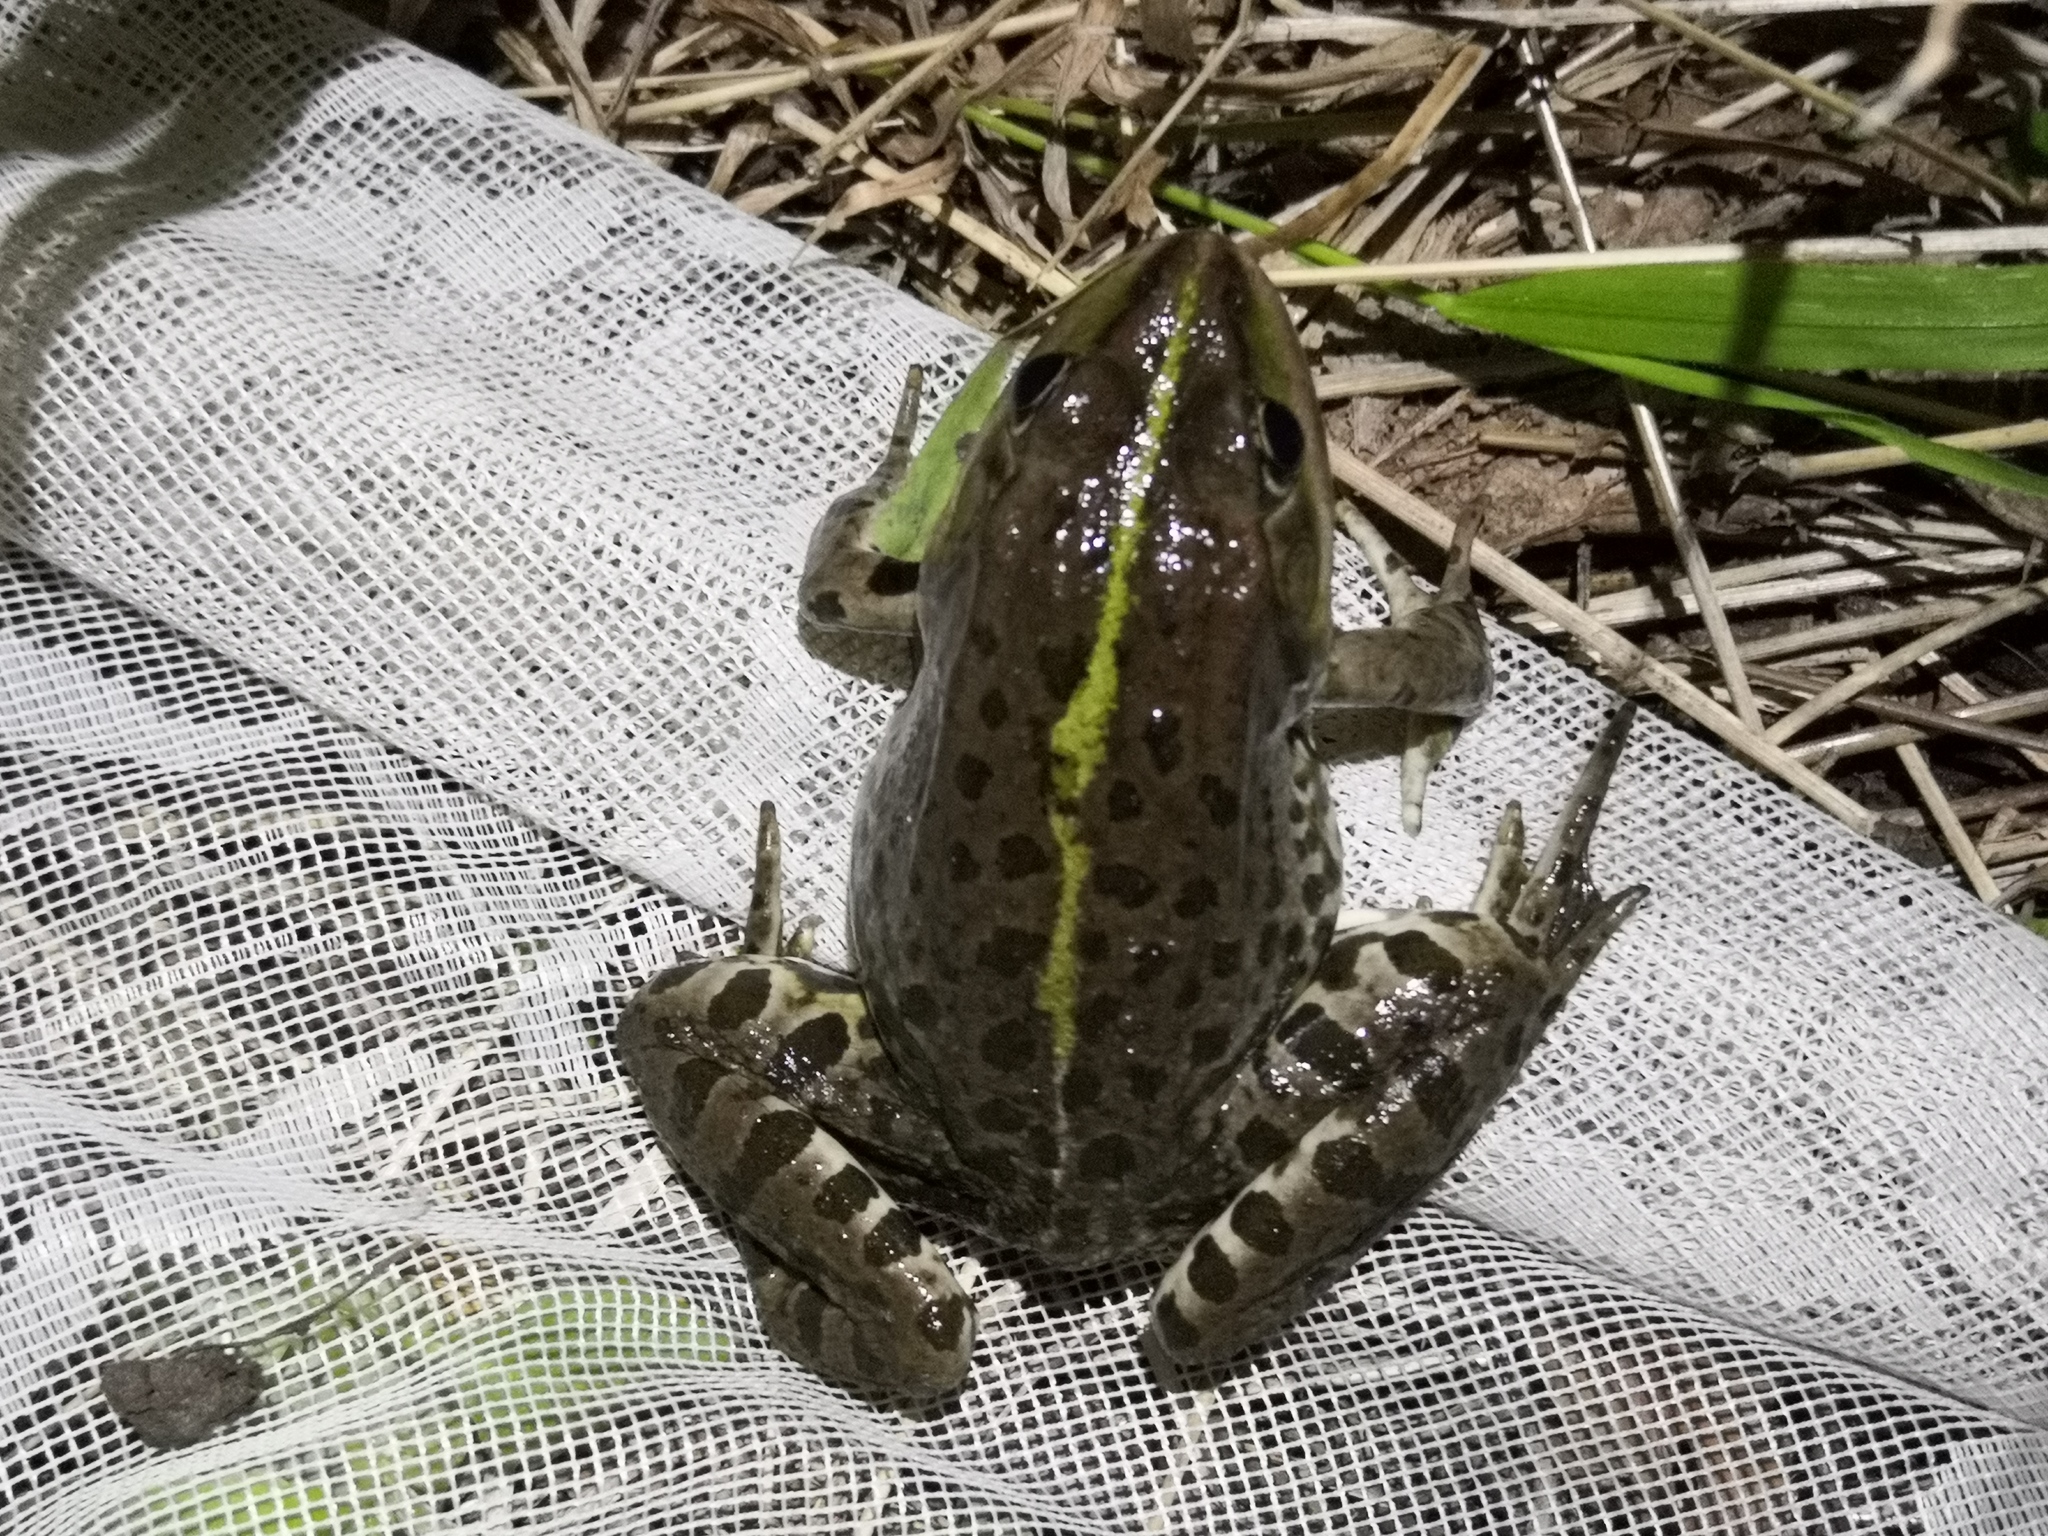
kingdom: Animalia
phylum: Chordata
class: Amphibia
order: Anura
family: Ranidae
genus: Pelophylax
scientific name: Pelophylax ridibundus
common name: Marsh frog
